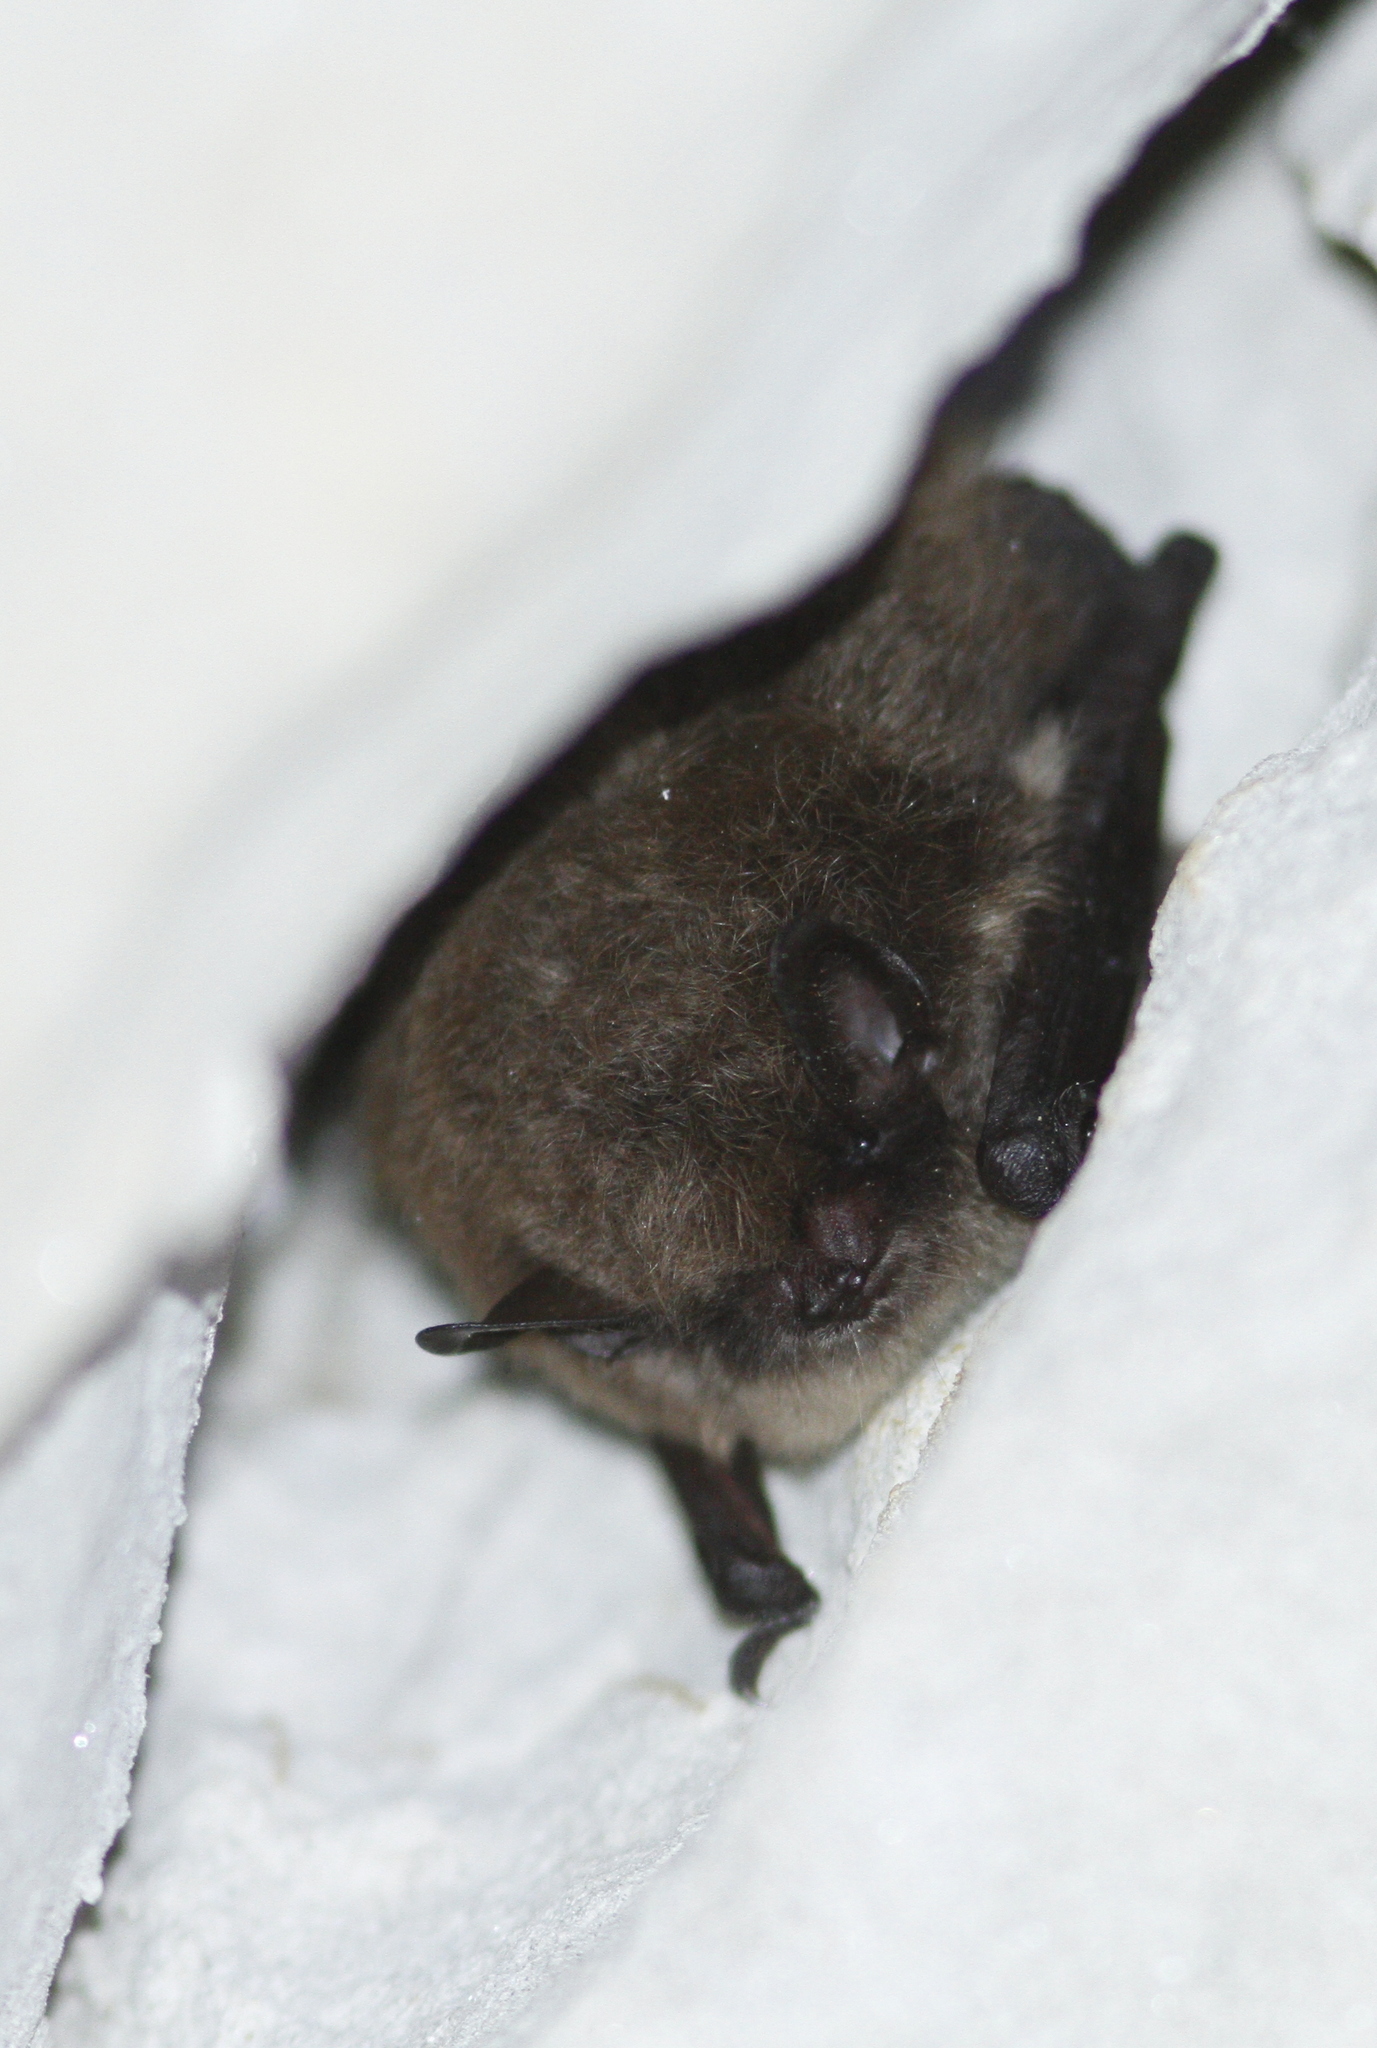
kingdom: Animalia
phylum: Chordata
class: Mammalia
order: Chiroptera
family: Vespertilionidae
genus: Myotis
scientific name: Myotis mystacinus
